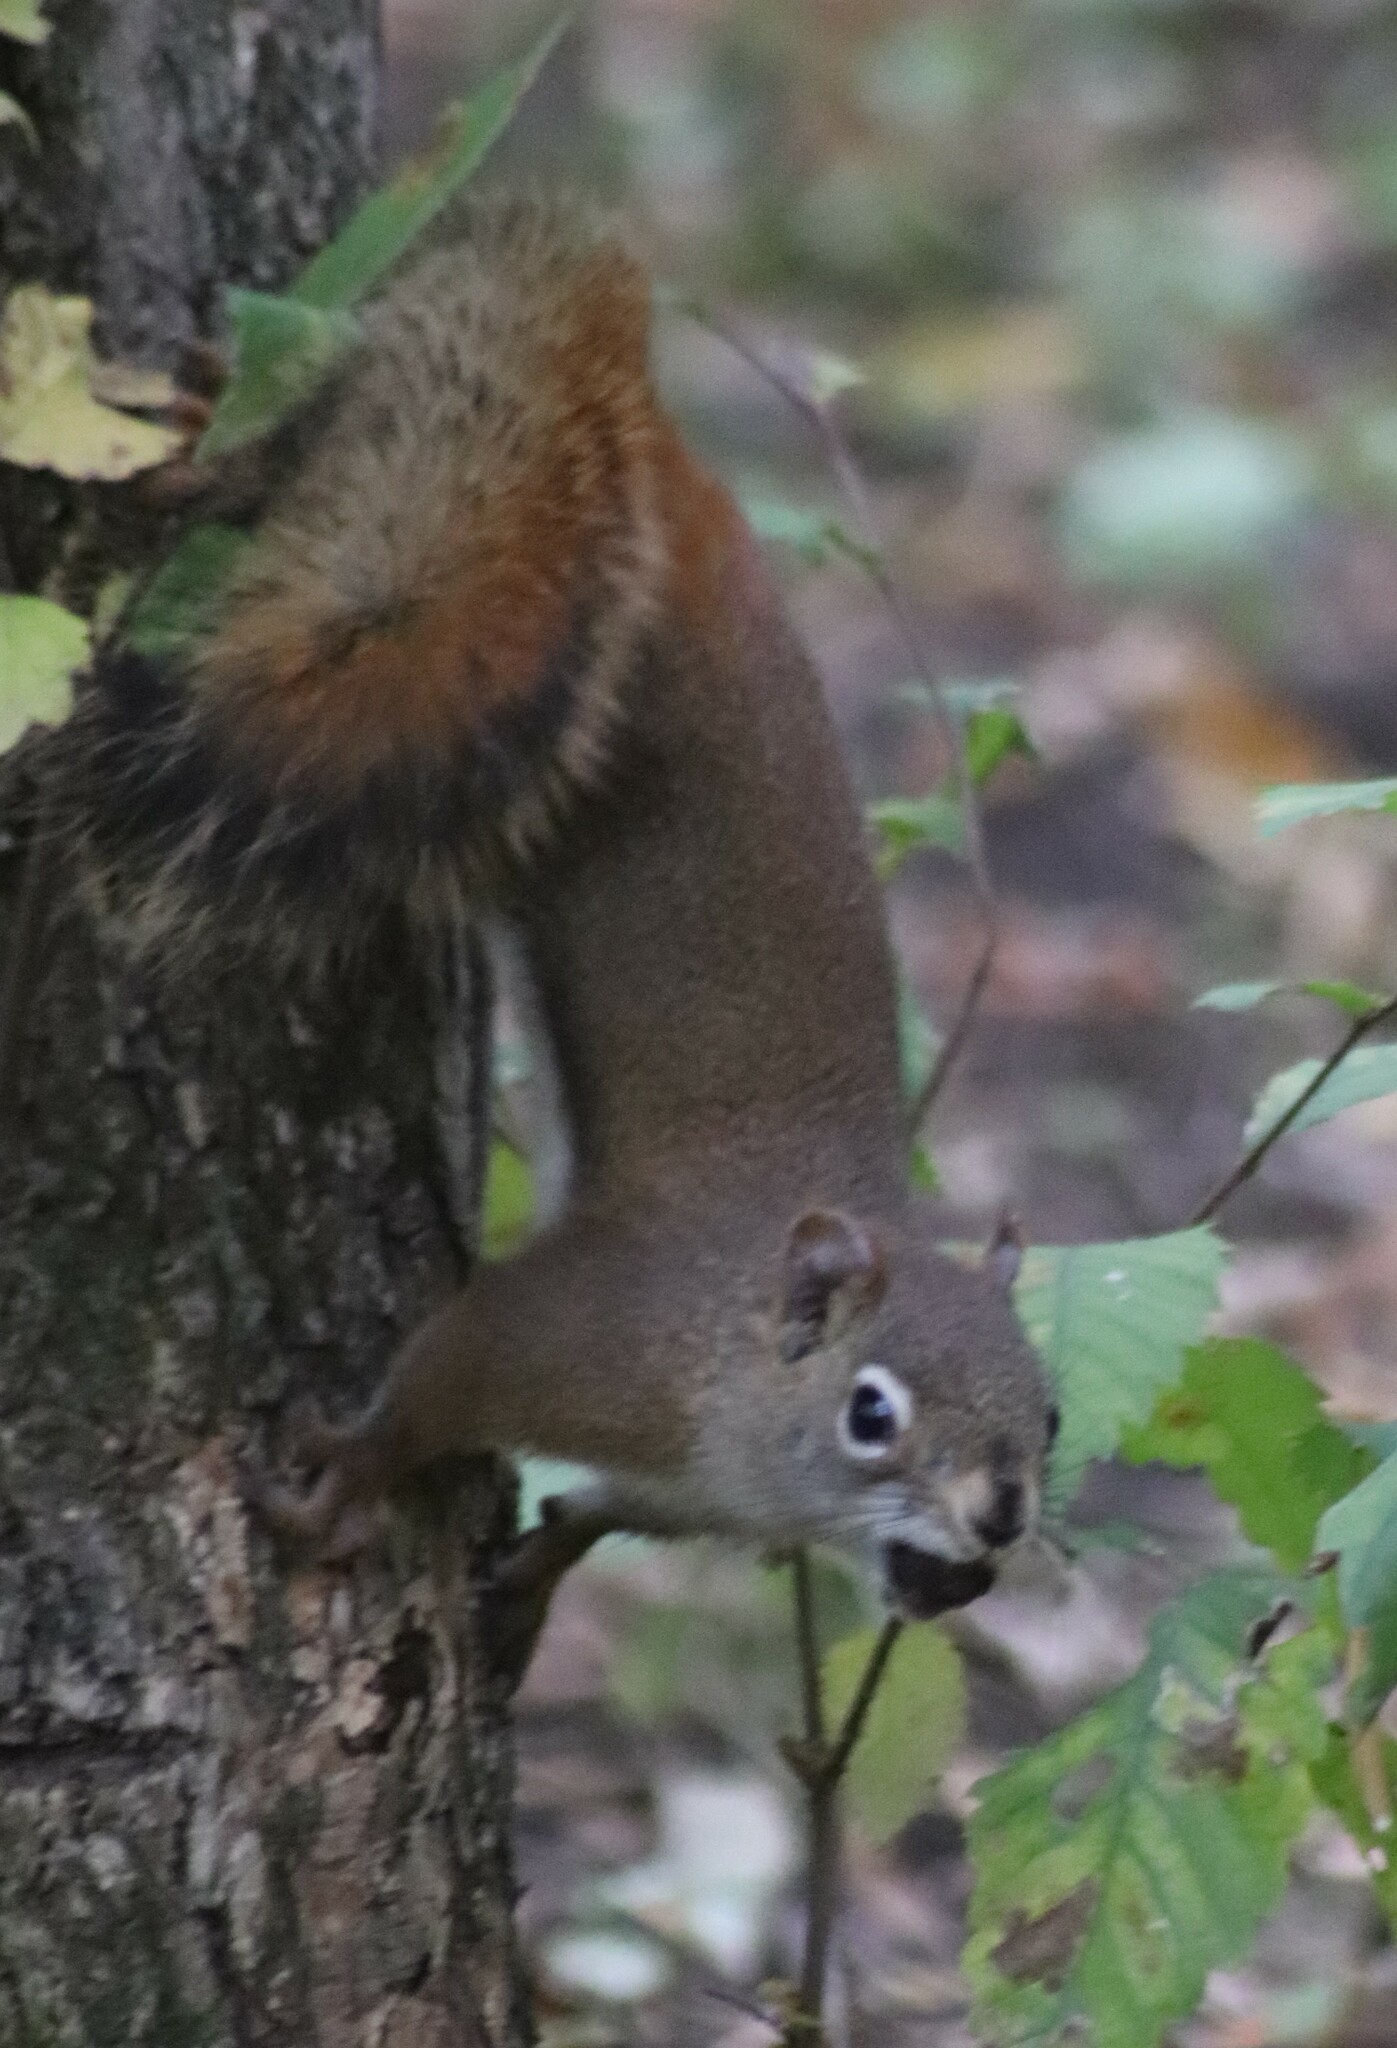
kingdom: Animalia
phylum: Chordata
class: Mammalia
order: Rodentia
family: Sciuridae
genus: Tamiasciurus
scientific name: Tamiasciurus hudsonicus
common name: Red squirrel
